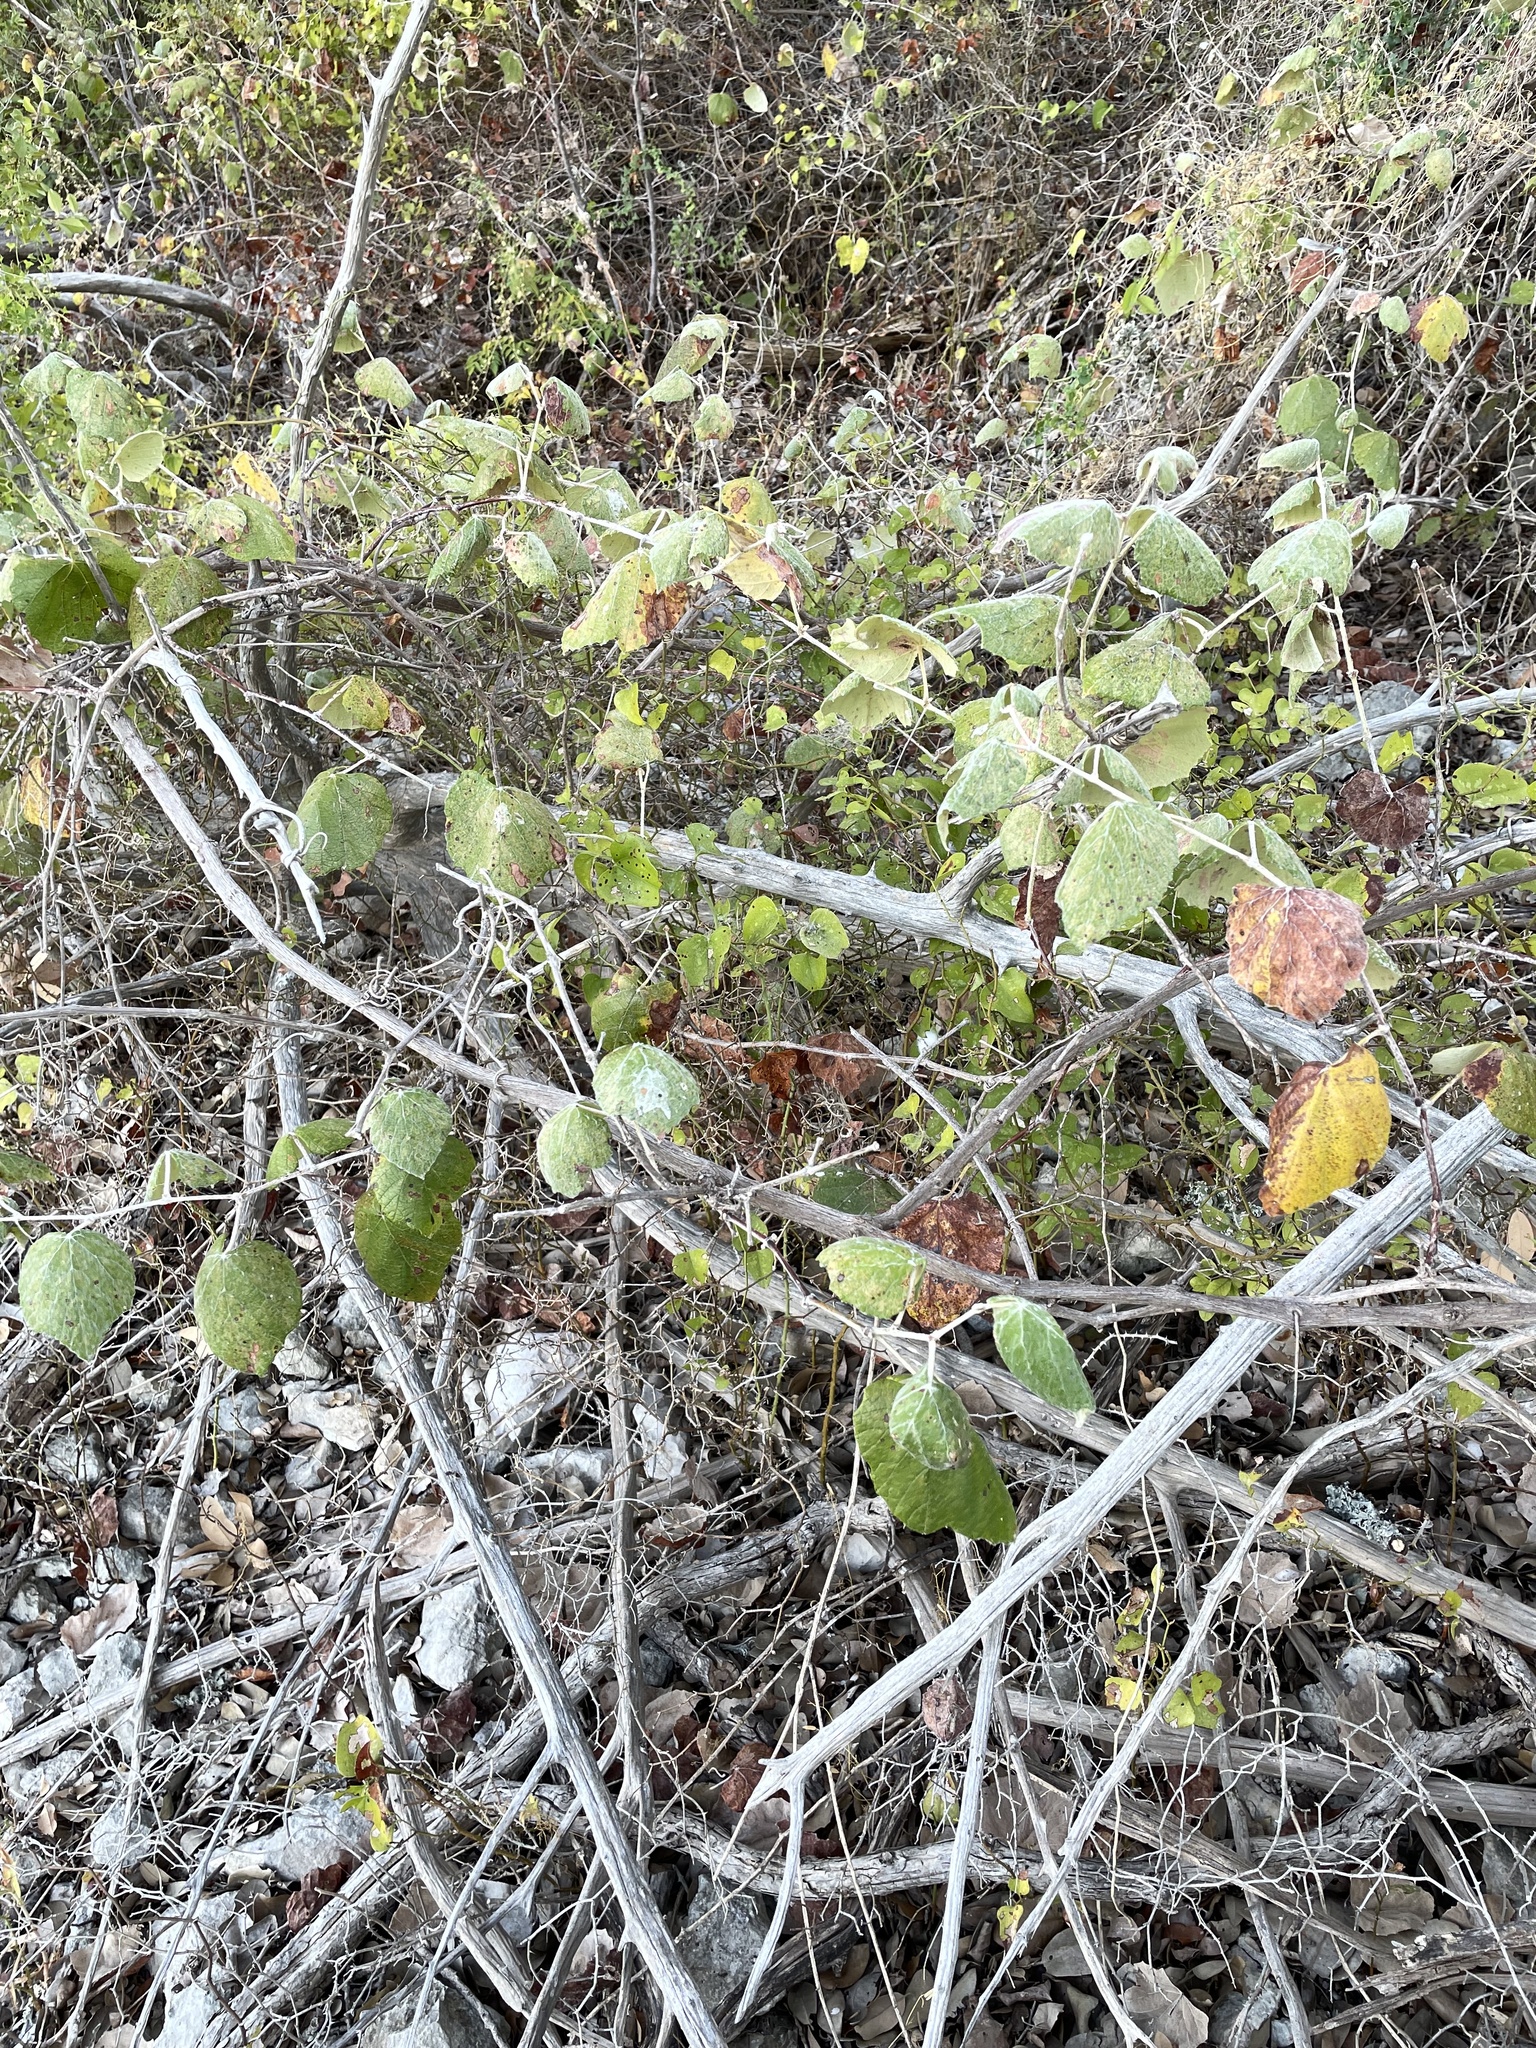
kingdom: Plantae
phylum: Tracheophyta
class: Magnoliopsida
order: Vitales
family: Vitaceae
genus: Vitis
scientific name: Vitis mustangensis
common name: Mustang grape
